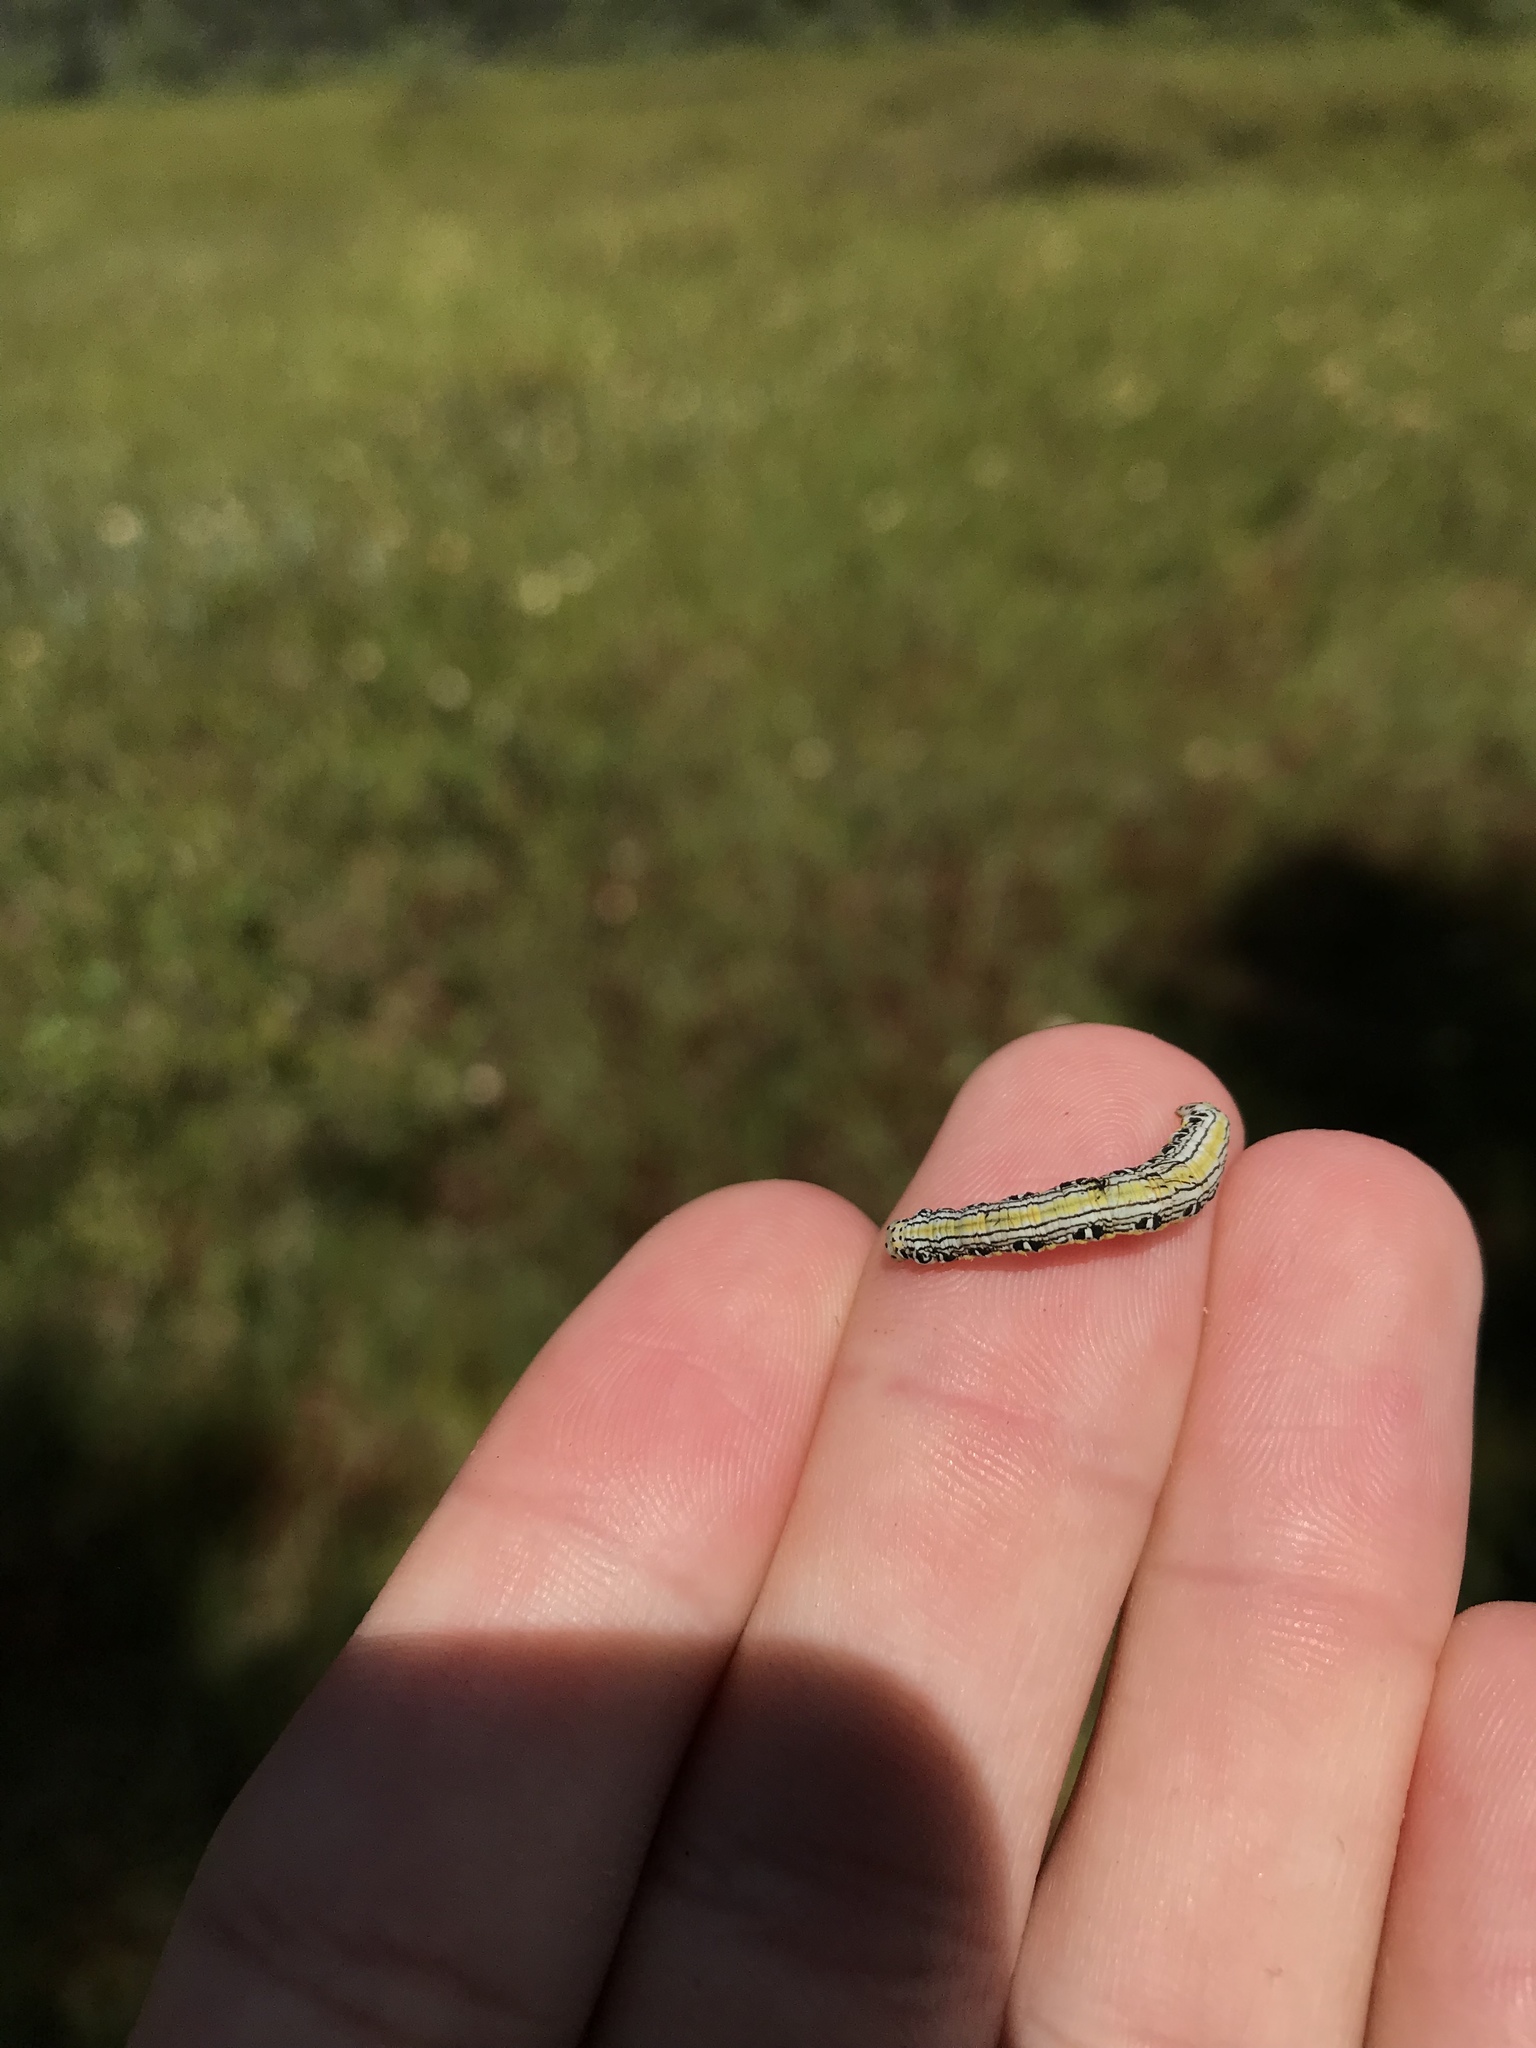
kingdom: Animalia
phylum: Arthropoda
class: Insecta
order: Lepidoptera
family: Geometridae
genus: Cingilia
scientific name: Cingilia catenaria
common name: Chain-dotted geometer
